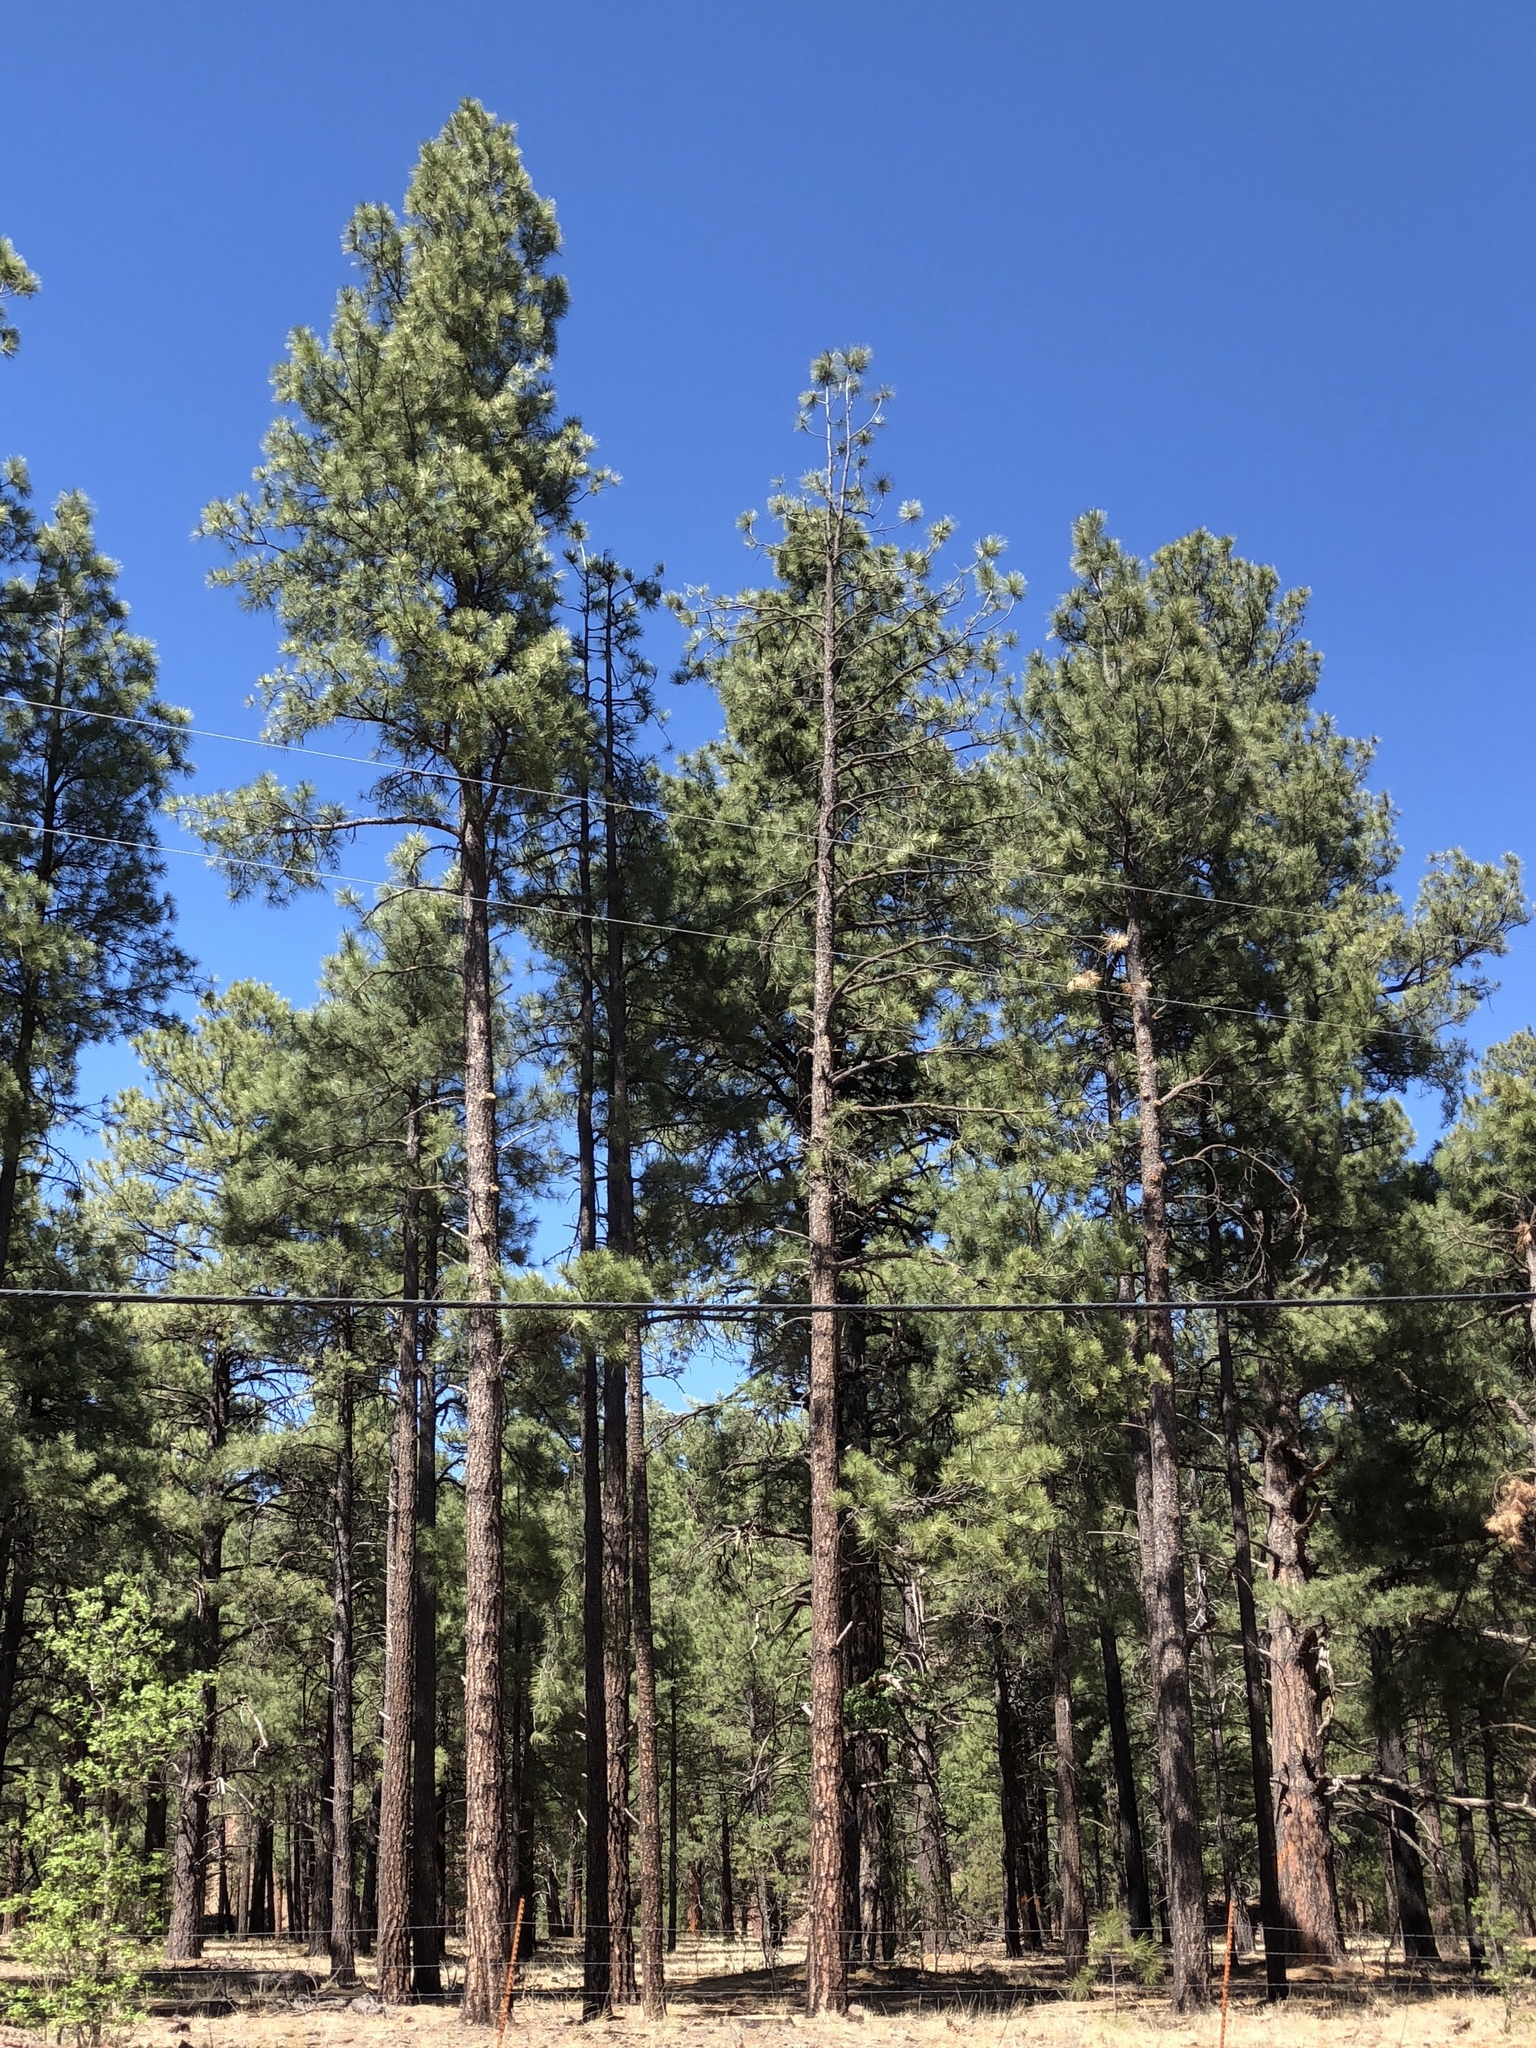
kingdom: Plantae
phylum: Tracheophyta
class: Pinopsida
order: Pinales
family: Pinaceae
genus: Pinus
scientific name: Pinus ponderosa
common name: Western yellow-pine
